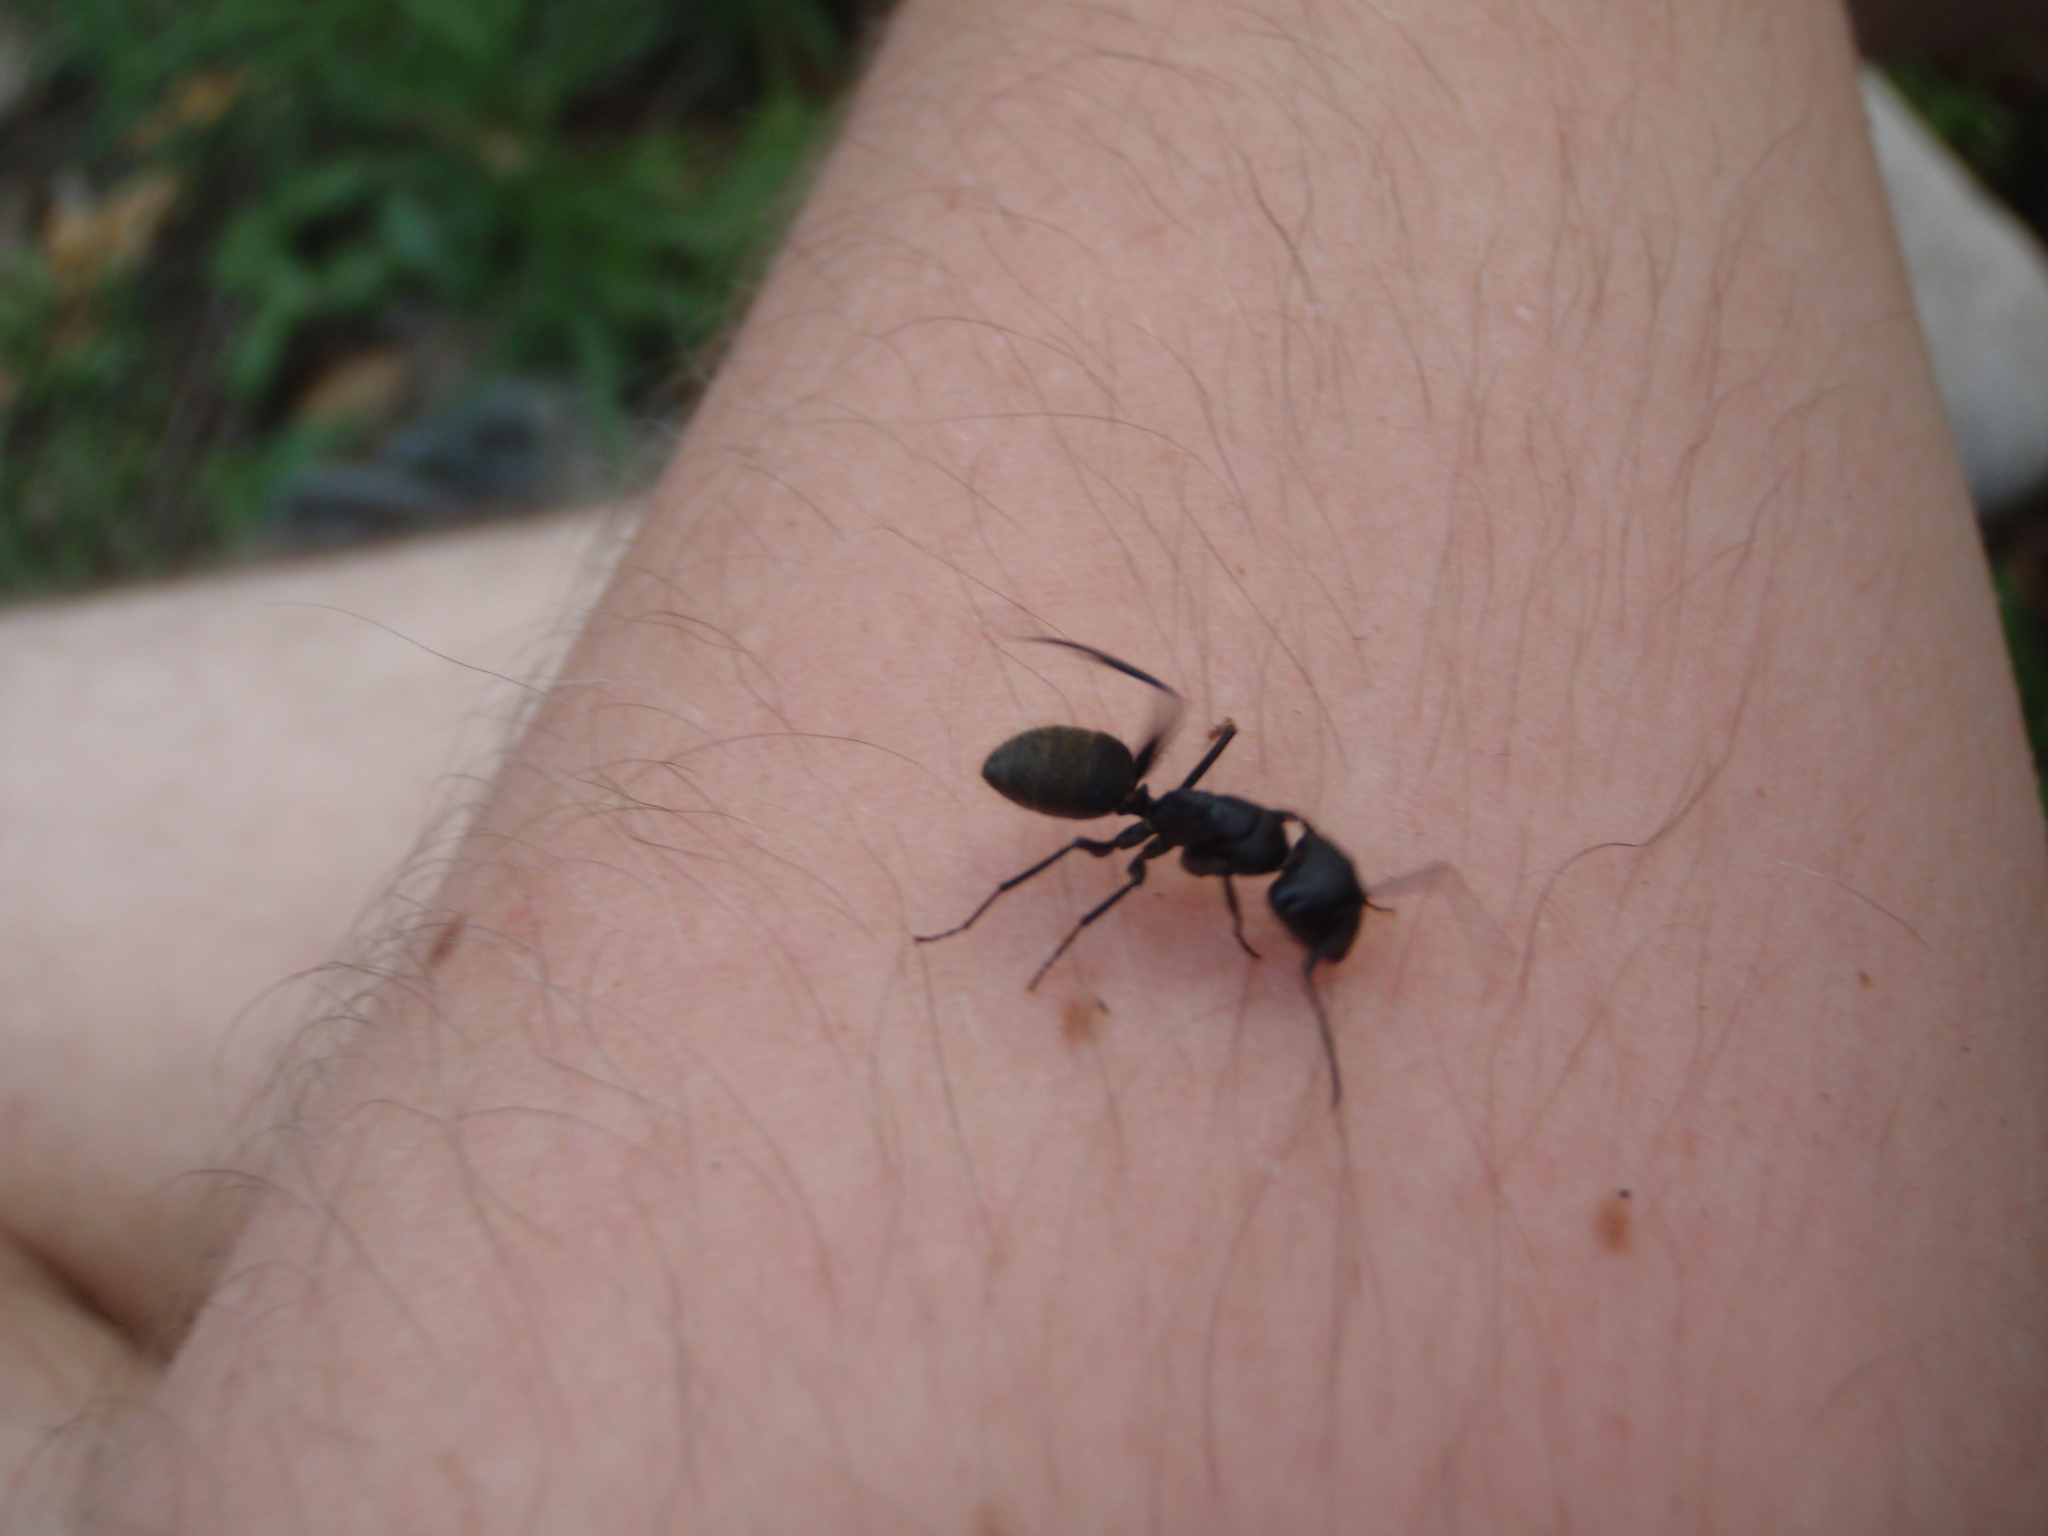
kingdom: Animalia
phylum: Arthropoda
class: Insecta
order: Hymenoptera
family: Formicidae
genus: Camponotus
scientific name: Camponotus japonicus
